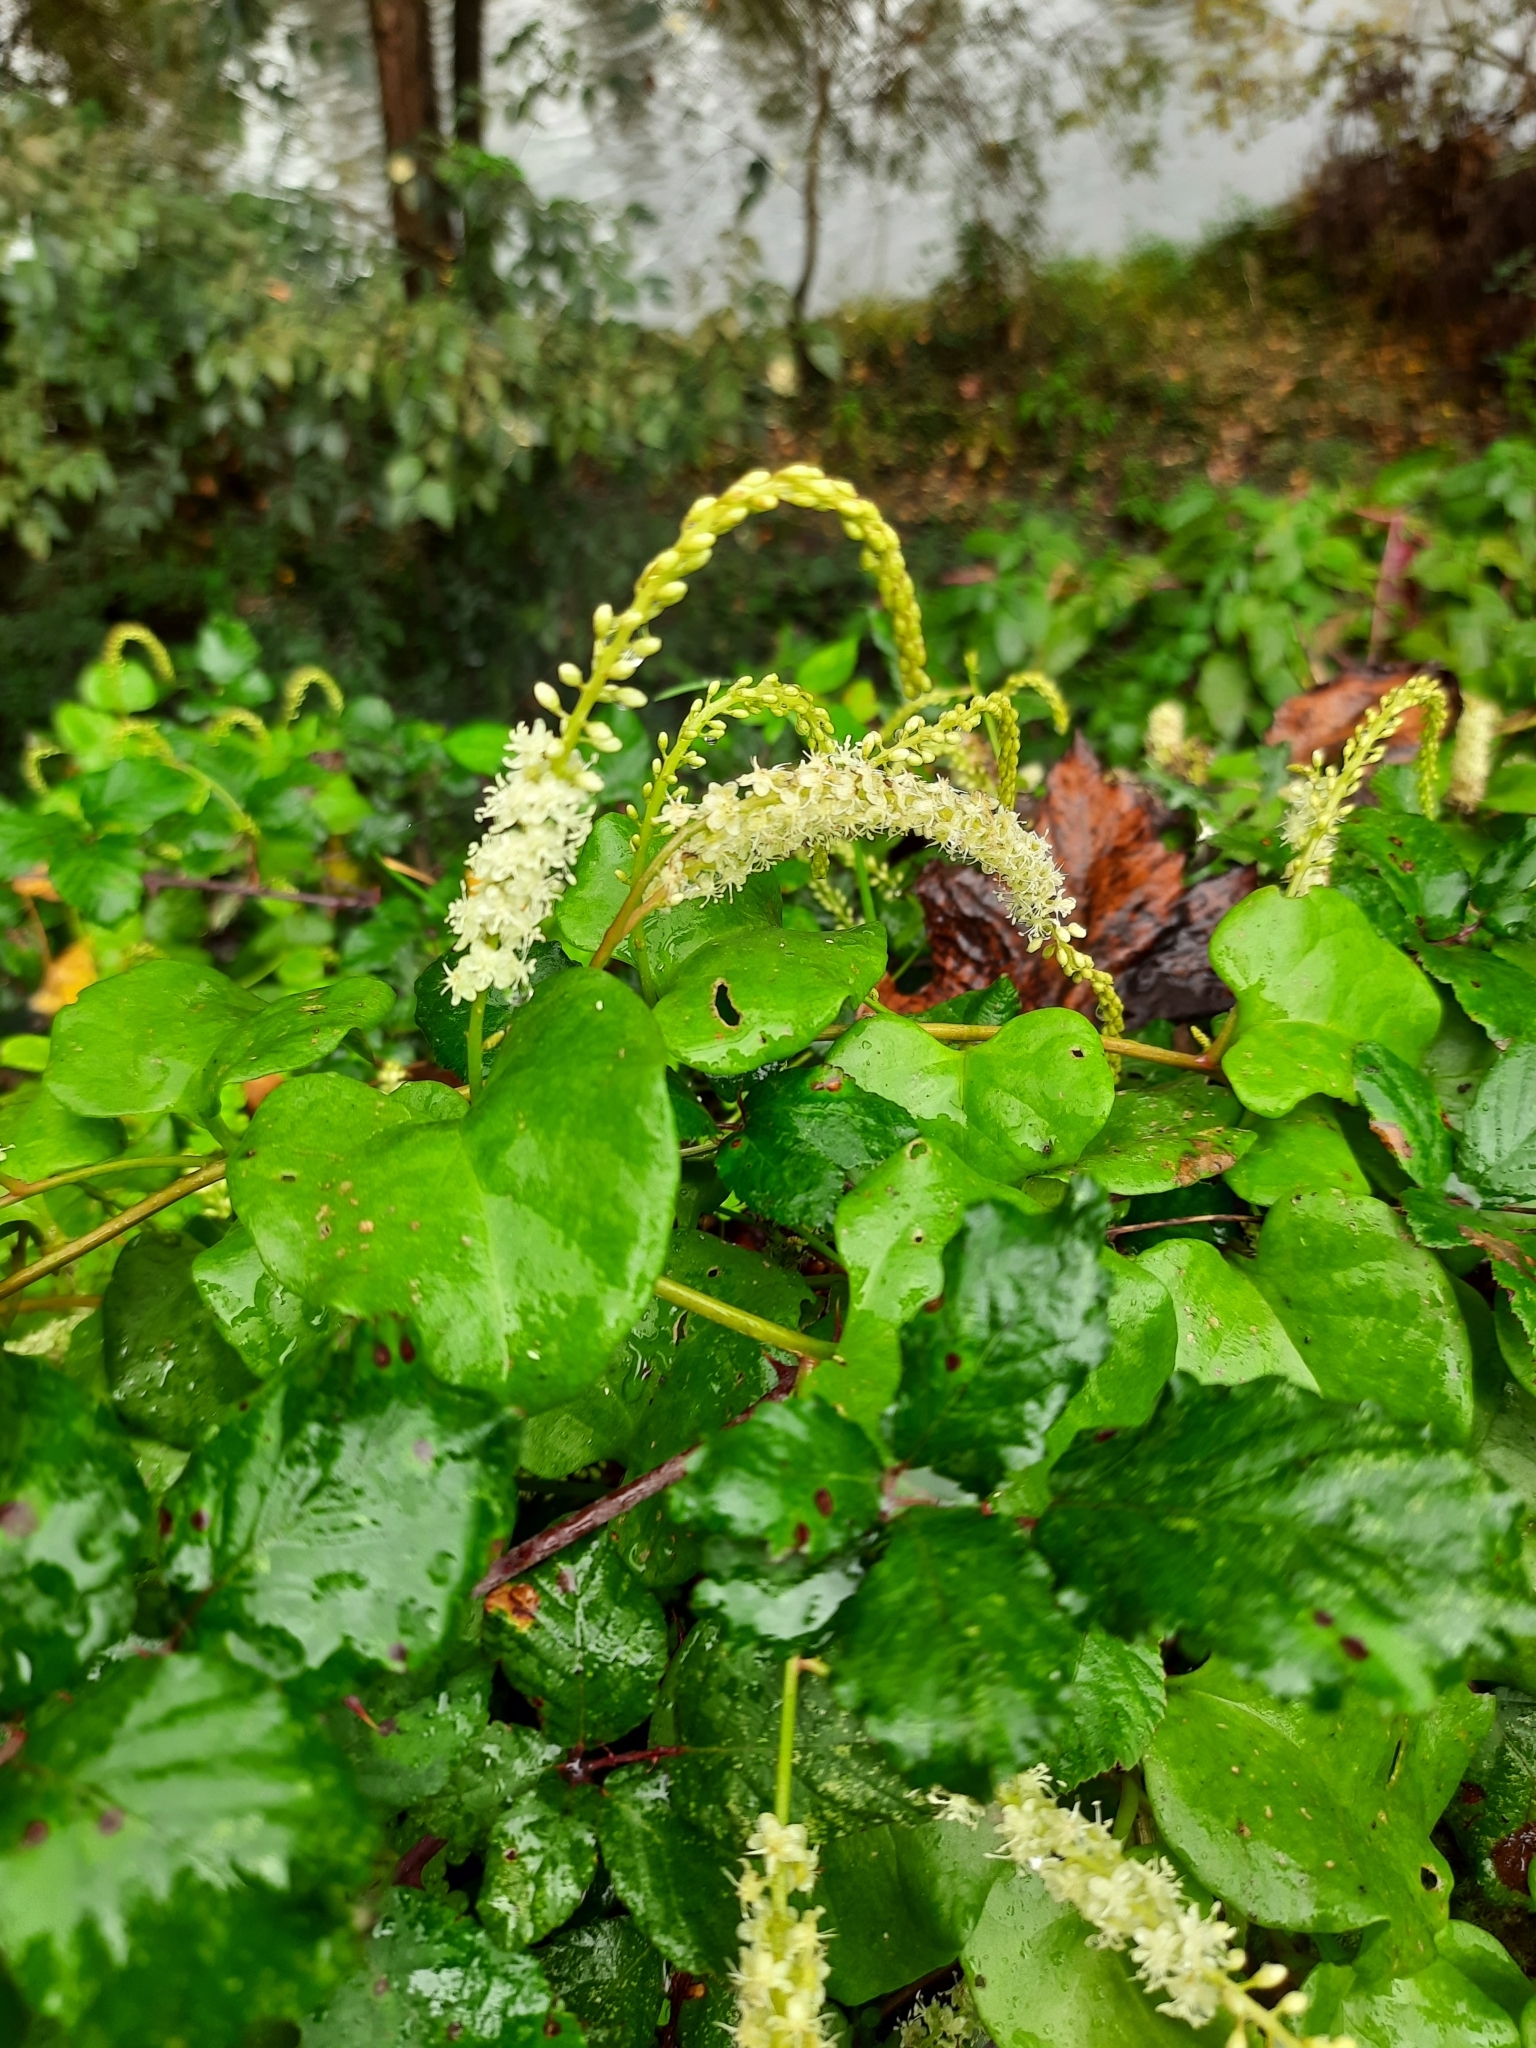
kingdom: Plantae
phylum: Tracheophyta
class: Magnoliopsida
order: Caryophyllales
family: Basellaceae
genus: Anredera
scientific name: Anredera cordifolia
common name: Heartleaf madeiravine
